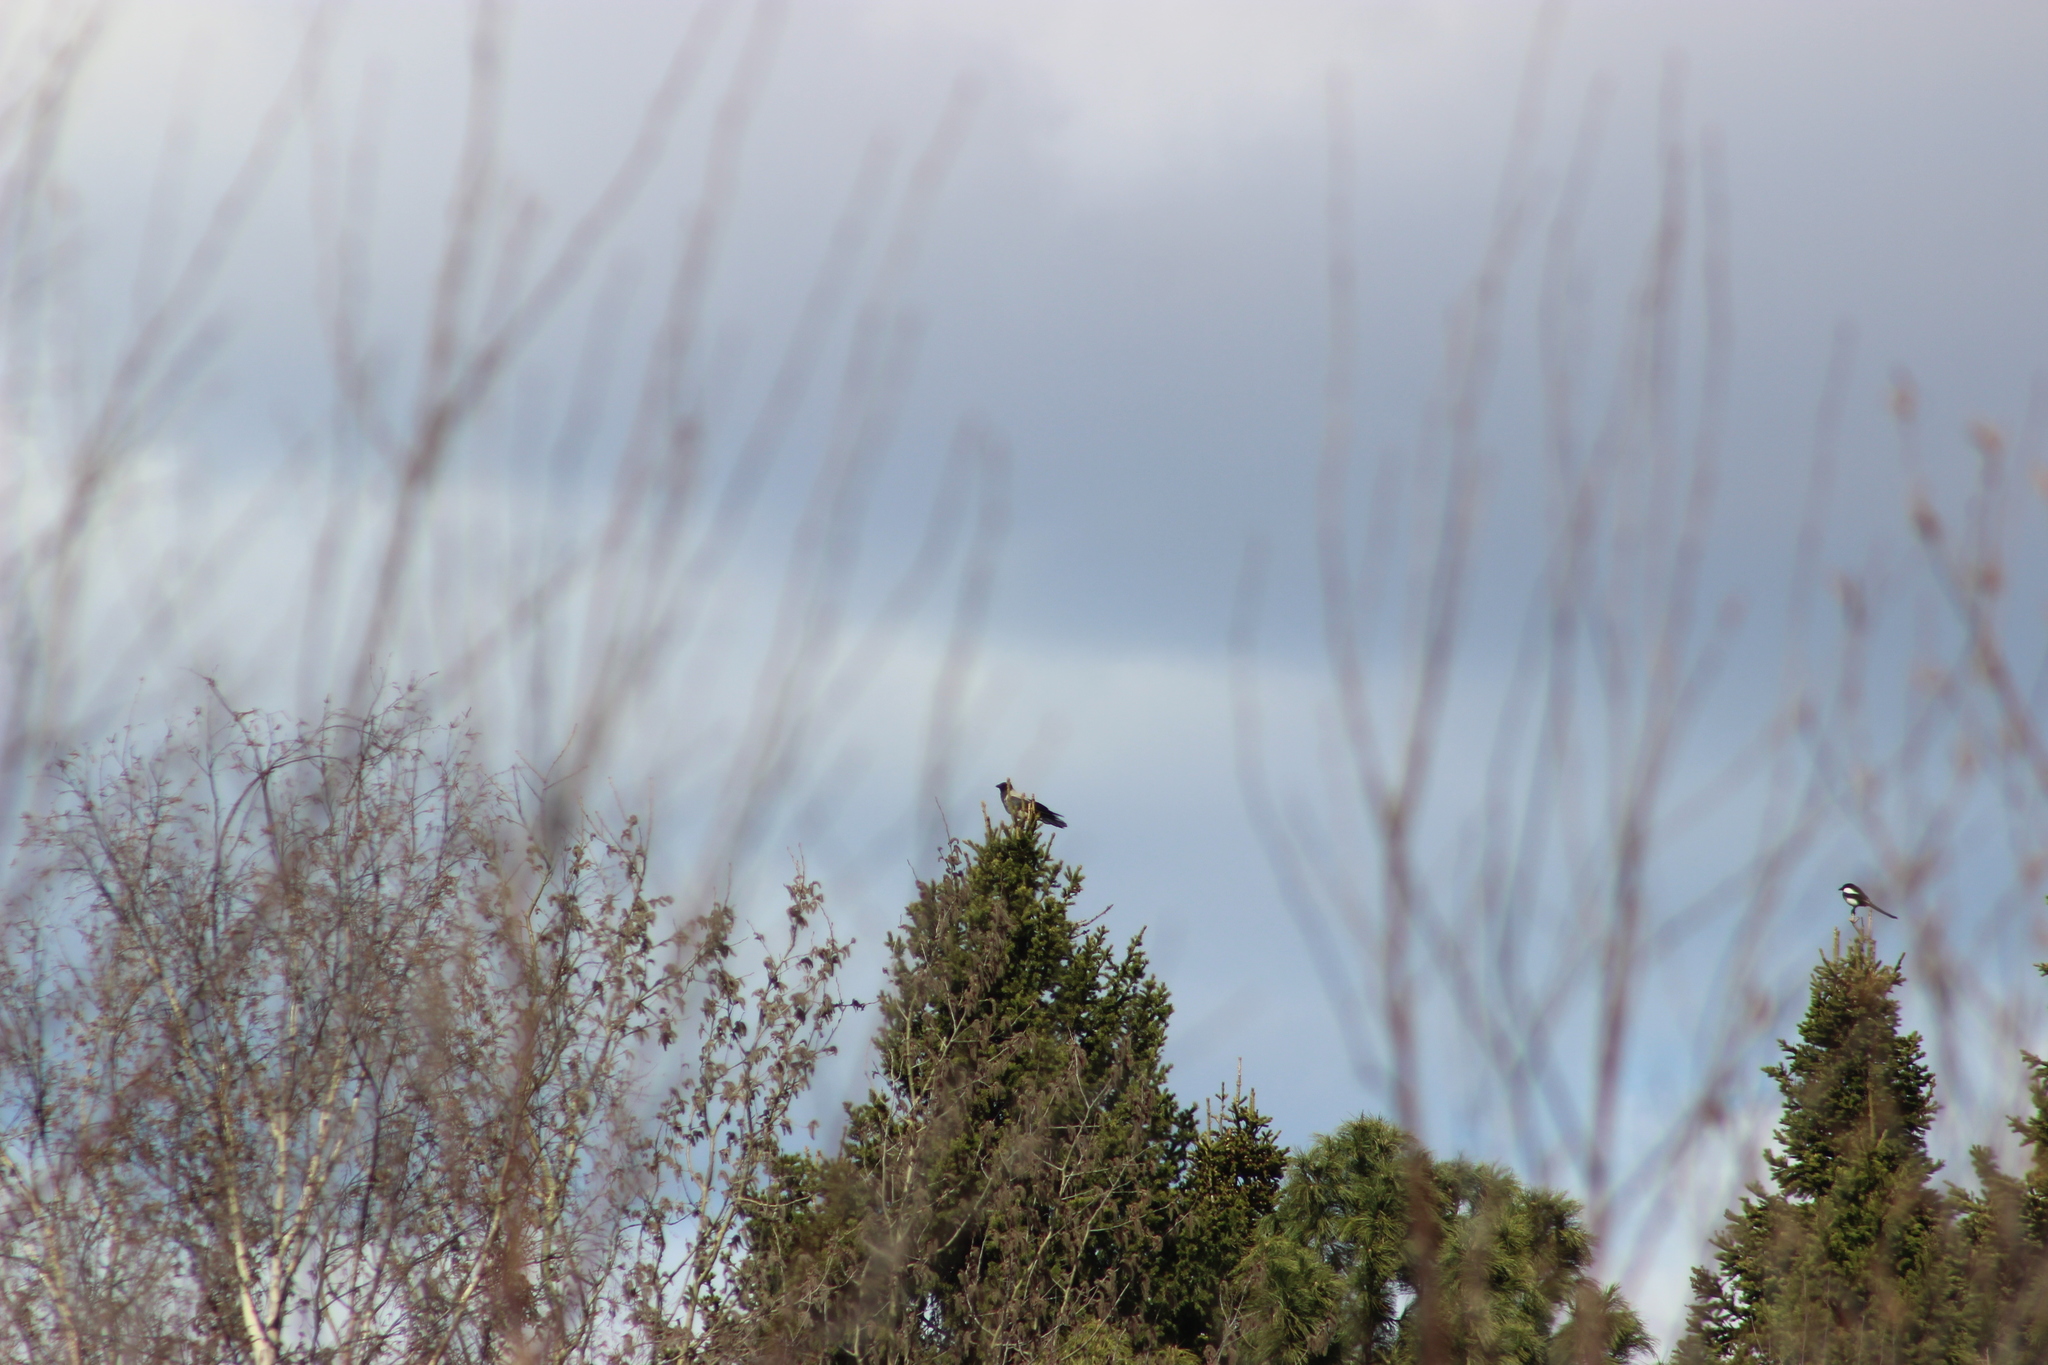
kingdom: Animalia
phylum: Chordata
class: Aves
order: Passeriformes
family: Corvidae
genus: Corvus
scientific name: Corvus cornix
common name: Hooded crow
